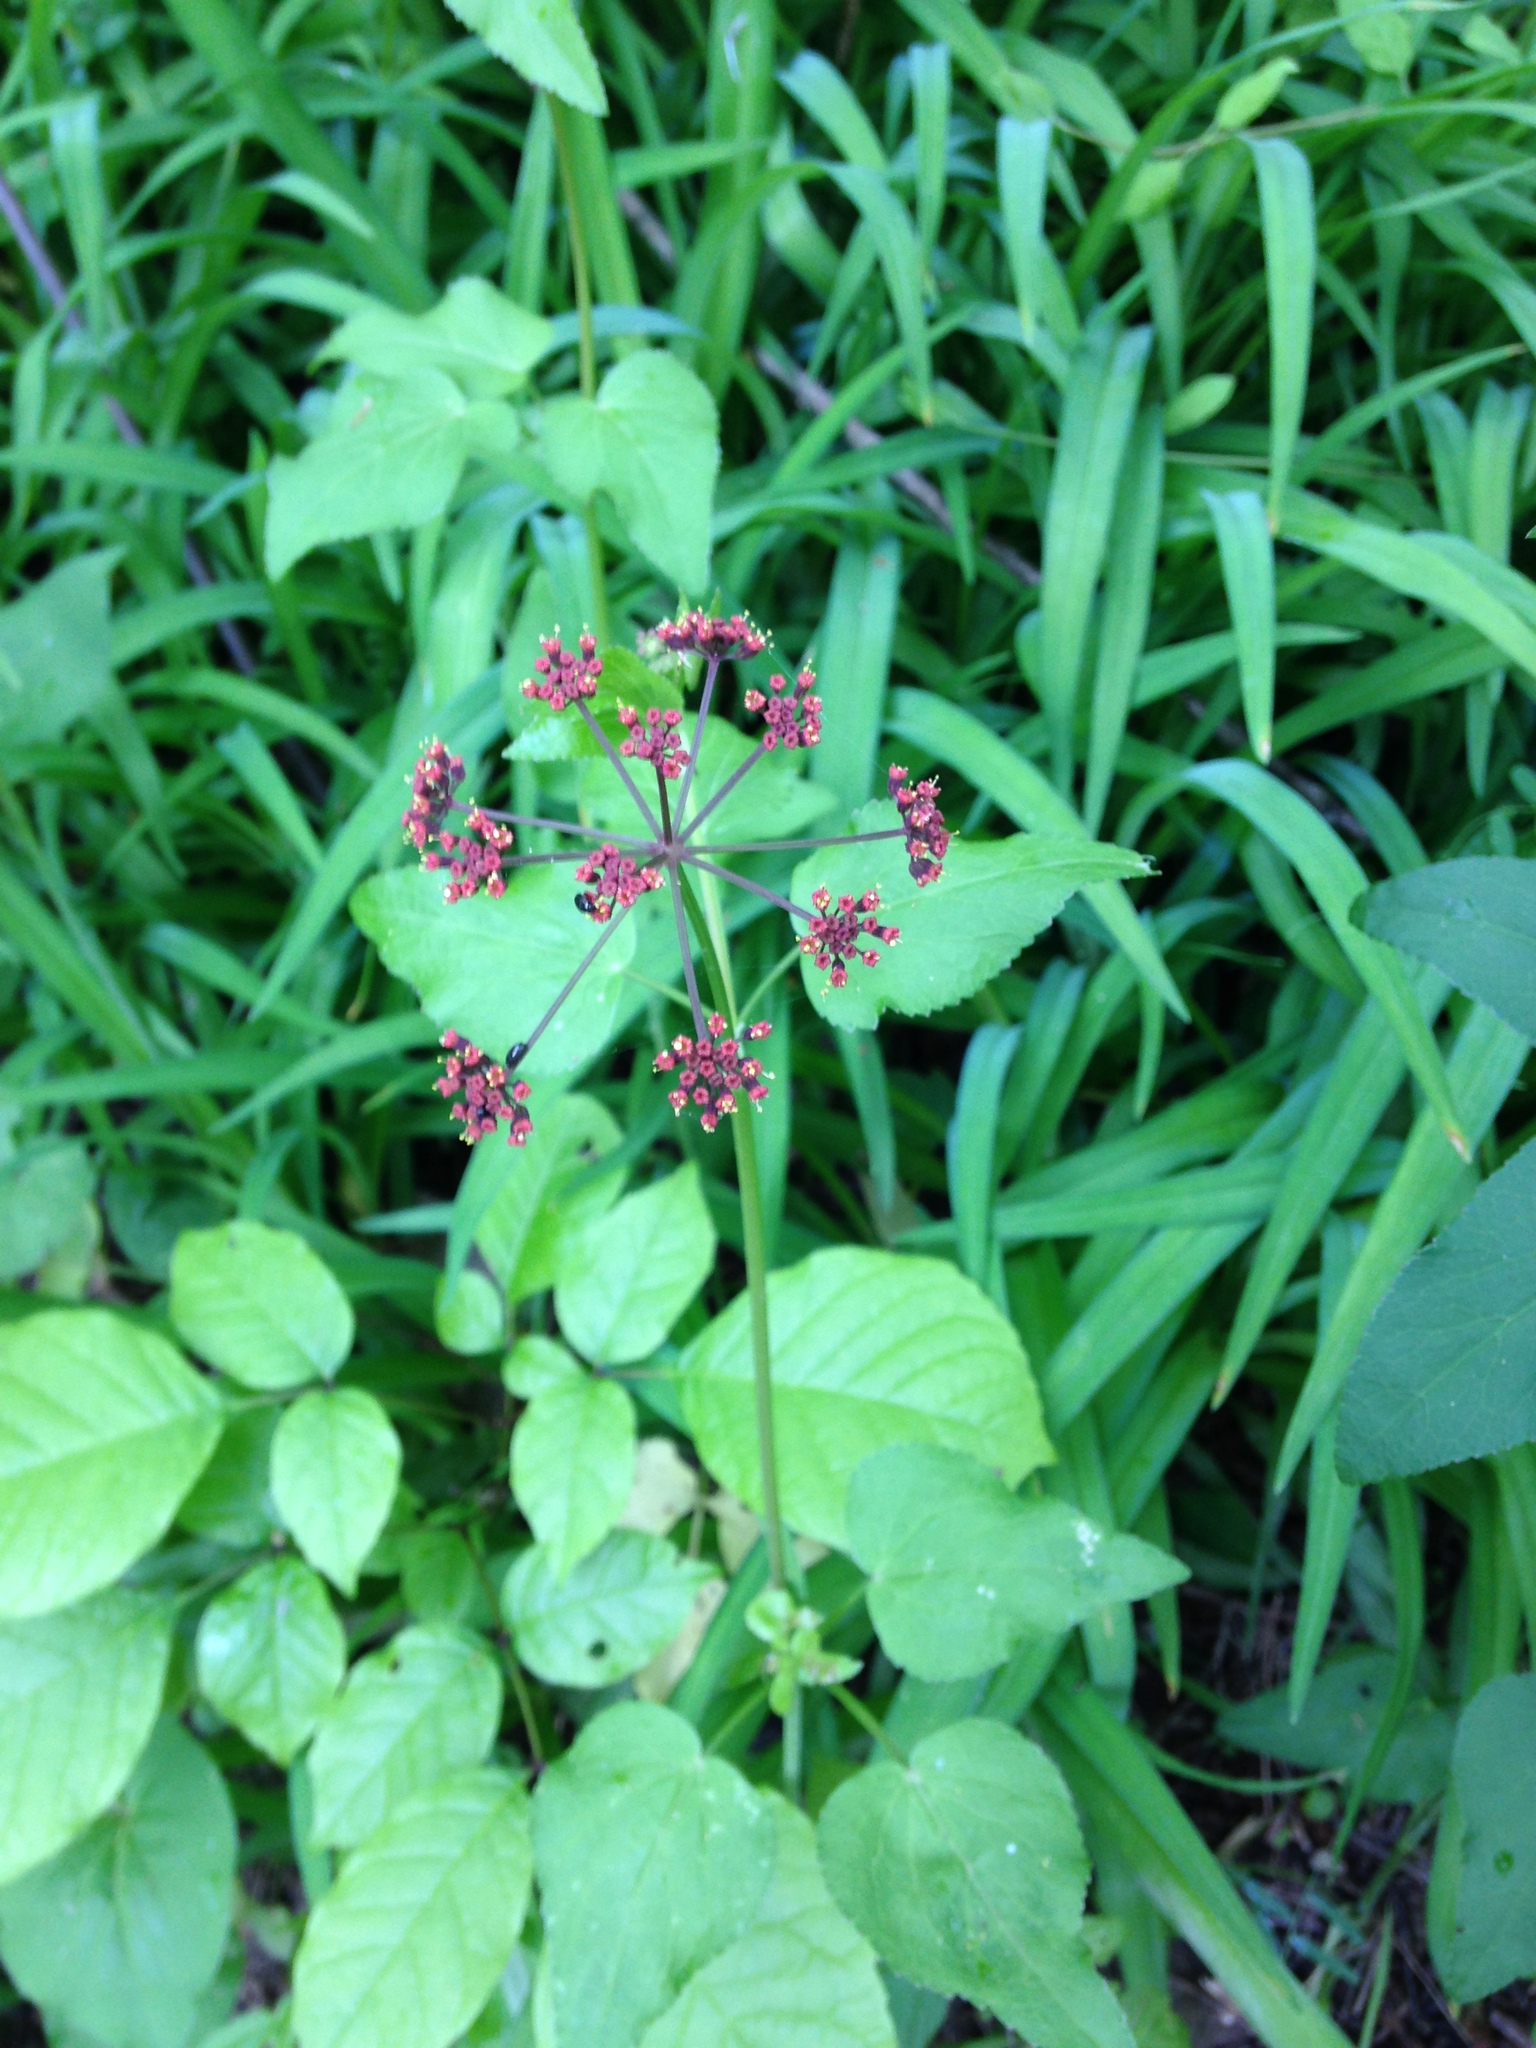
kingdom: Plantae
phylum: Tracheophyta
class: Magnoliopsida
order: Apiales
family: Apiaceae
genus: Thaspium
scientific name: Thaspium trifoliatum
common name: Purple meadow-parsnip
